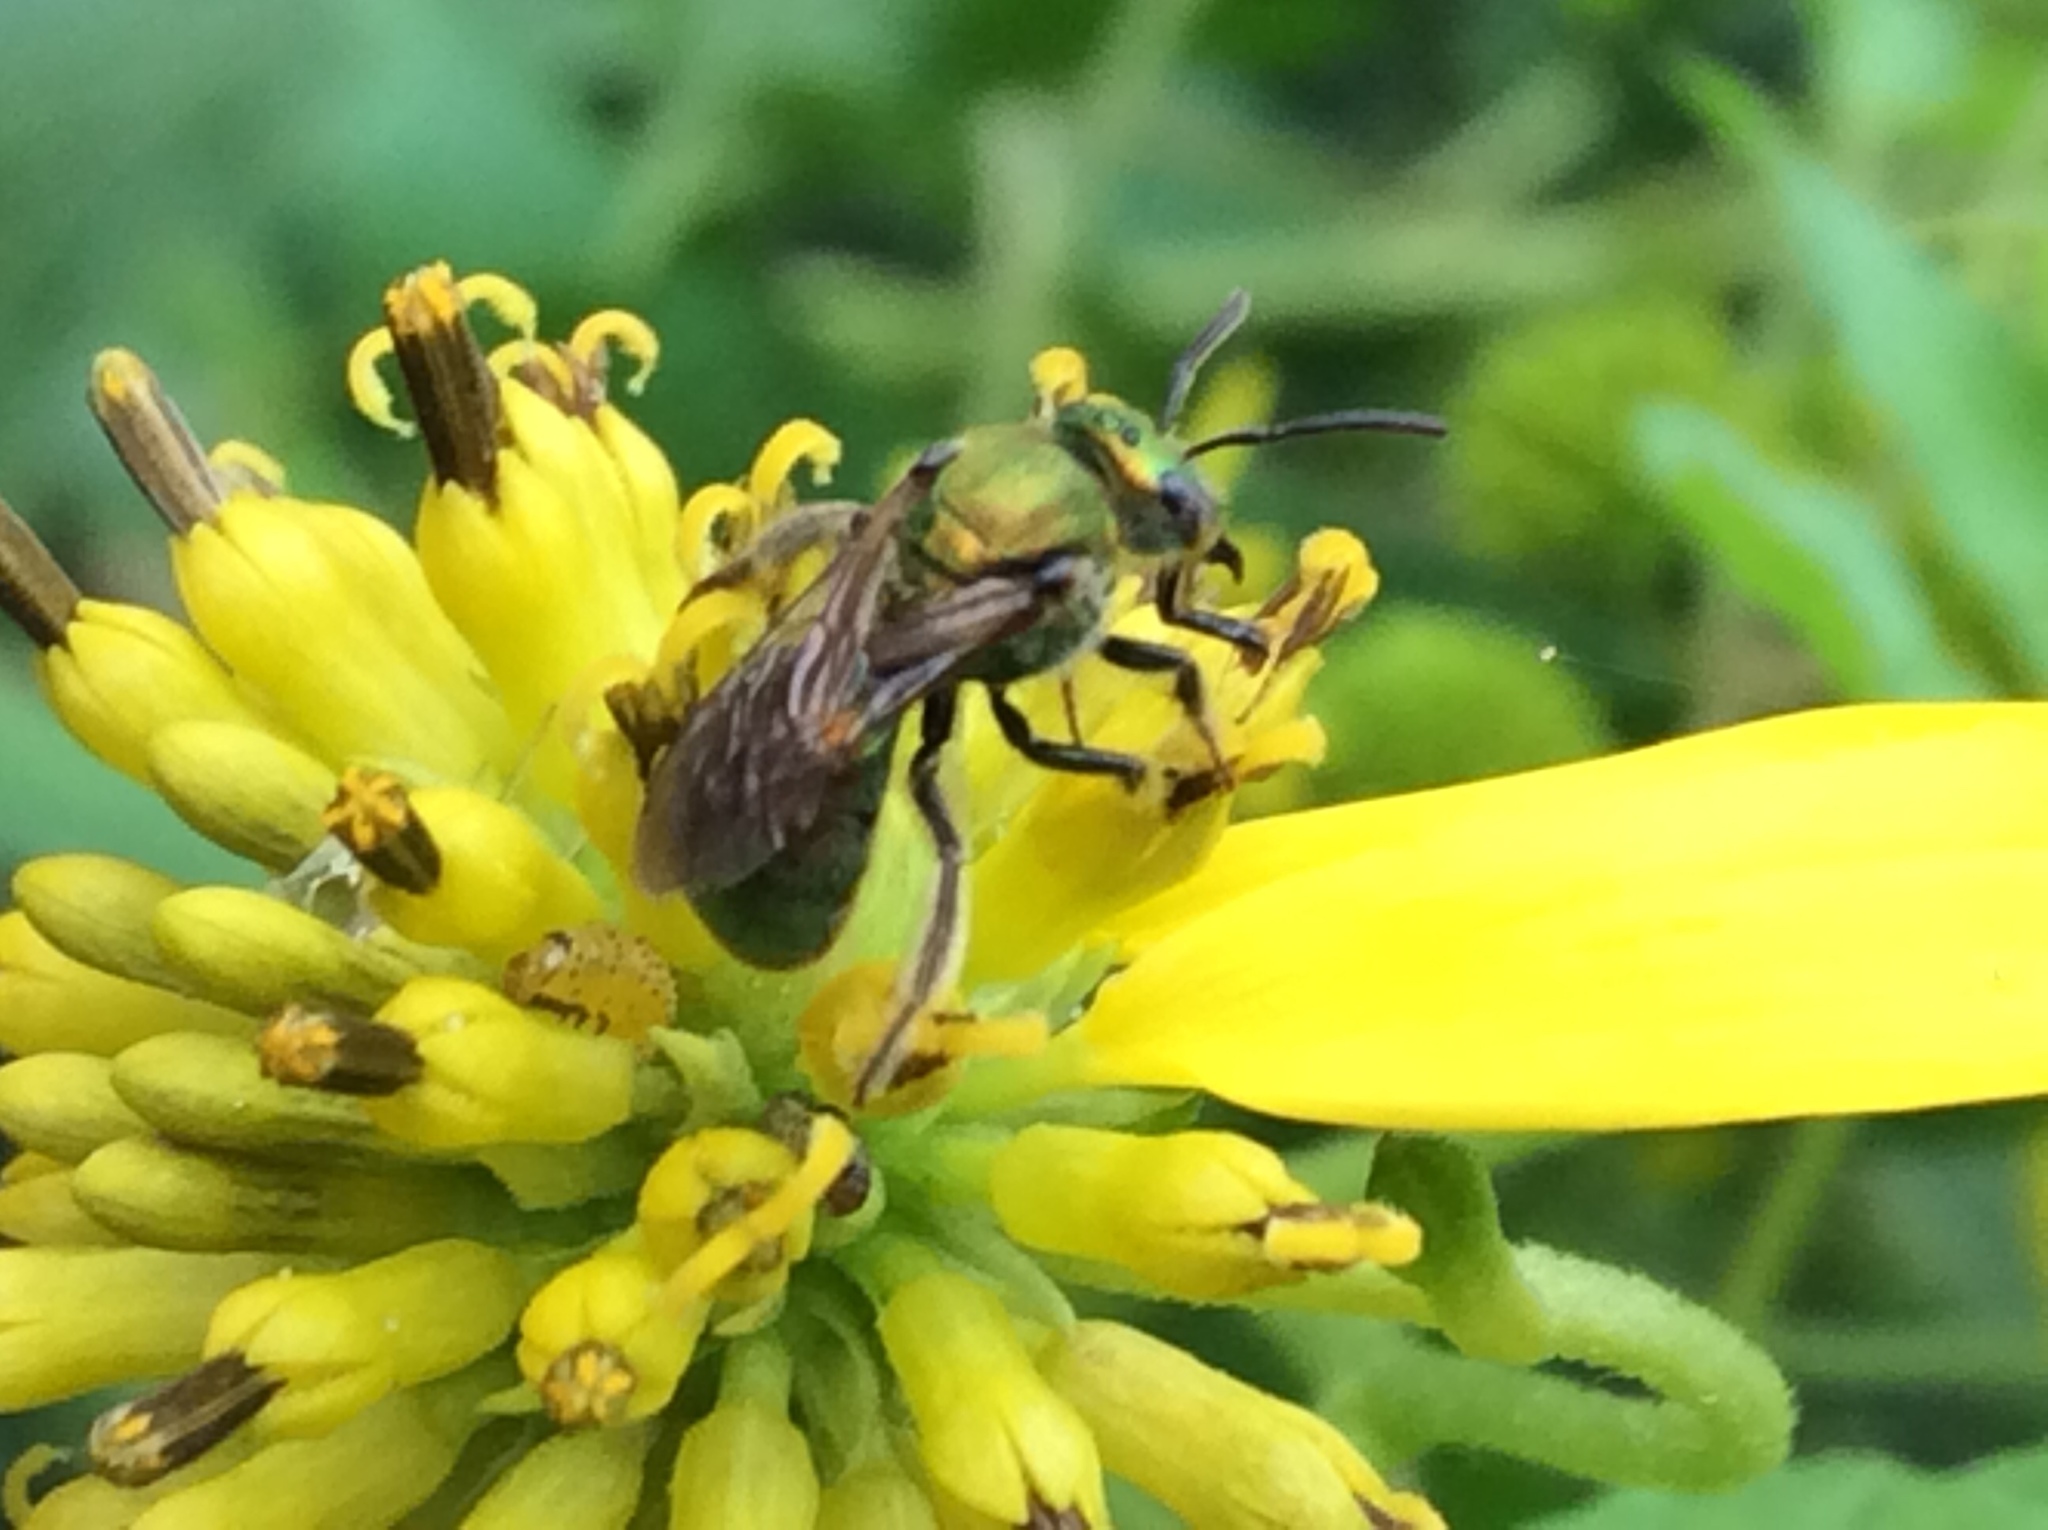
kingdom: Animalia
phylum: Arthropoda
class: Insecta
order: Hymenoptera
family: Halictidae
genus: Augochlora
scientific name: Augochlora pura
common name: Pure green sweat bee
